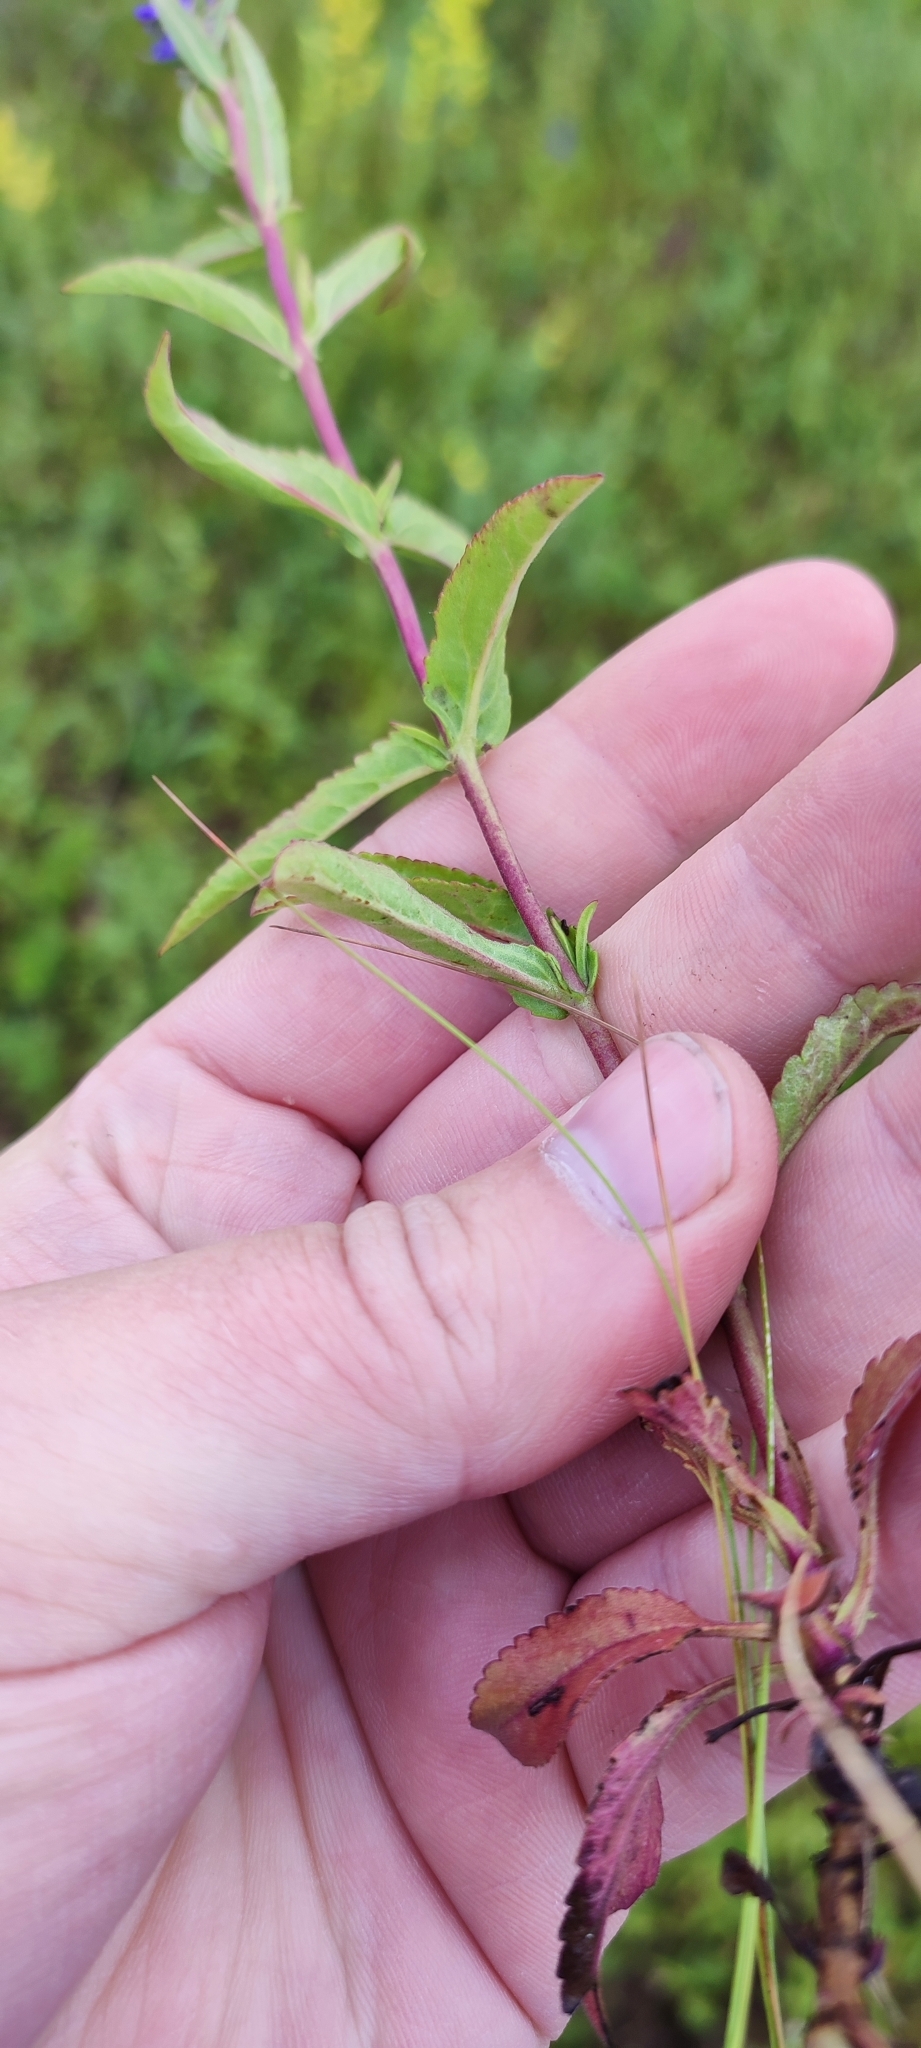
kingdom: Plantae
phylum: Tracheophyta
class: Magnoliopsida
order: Lamiales
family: Plantaginaceae
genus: Veronica
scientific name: Veronica spicata
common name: Spiked speedwell
